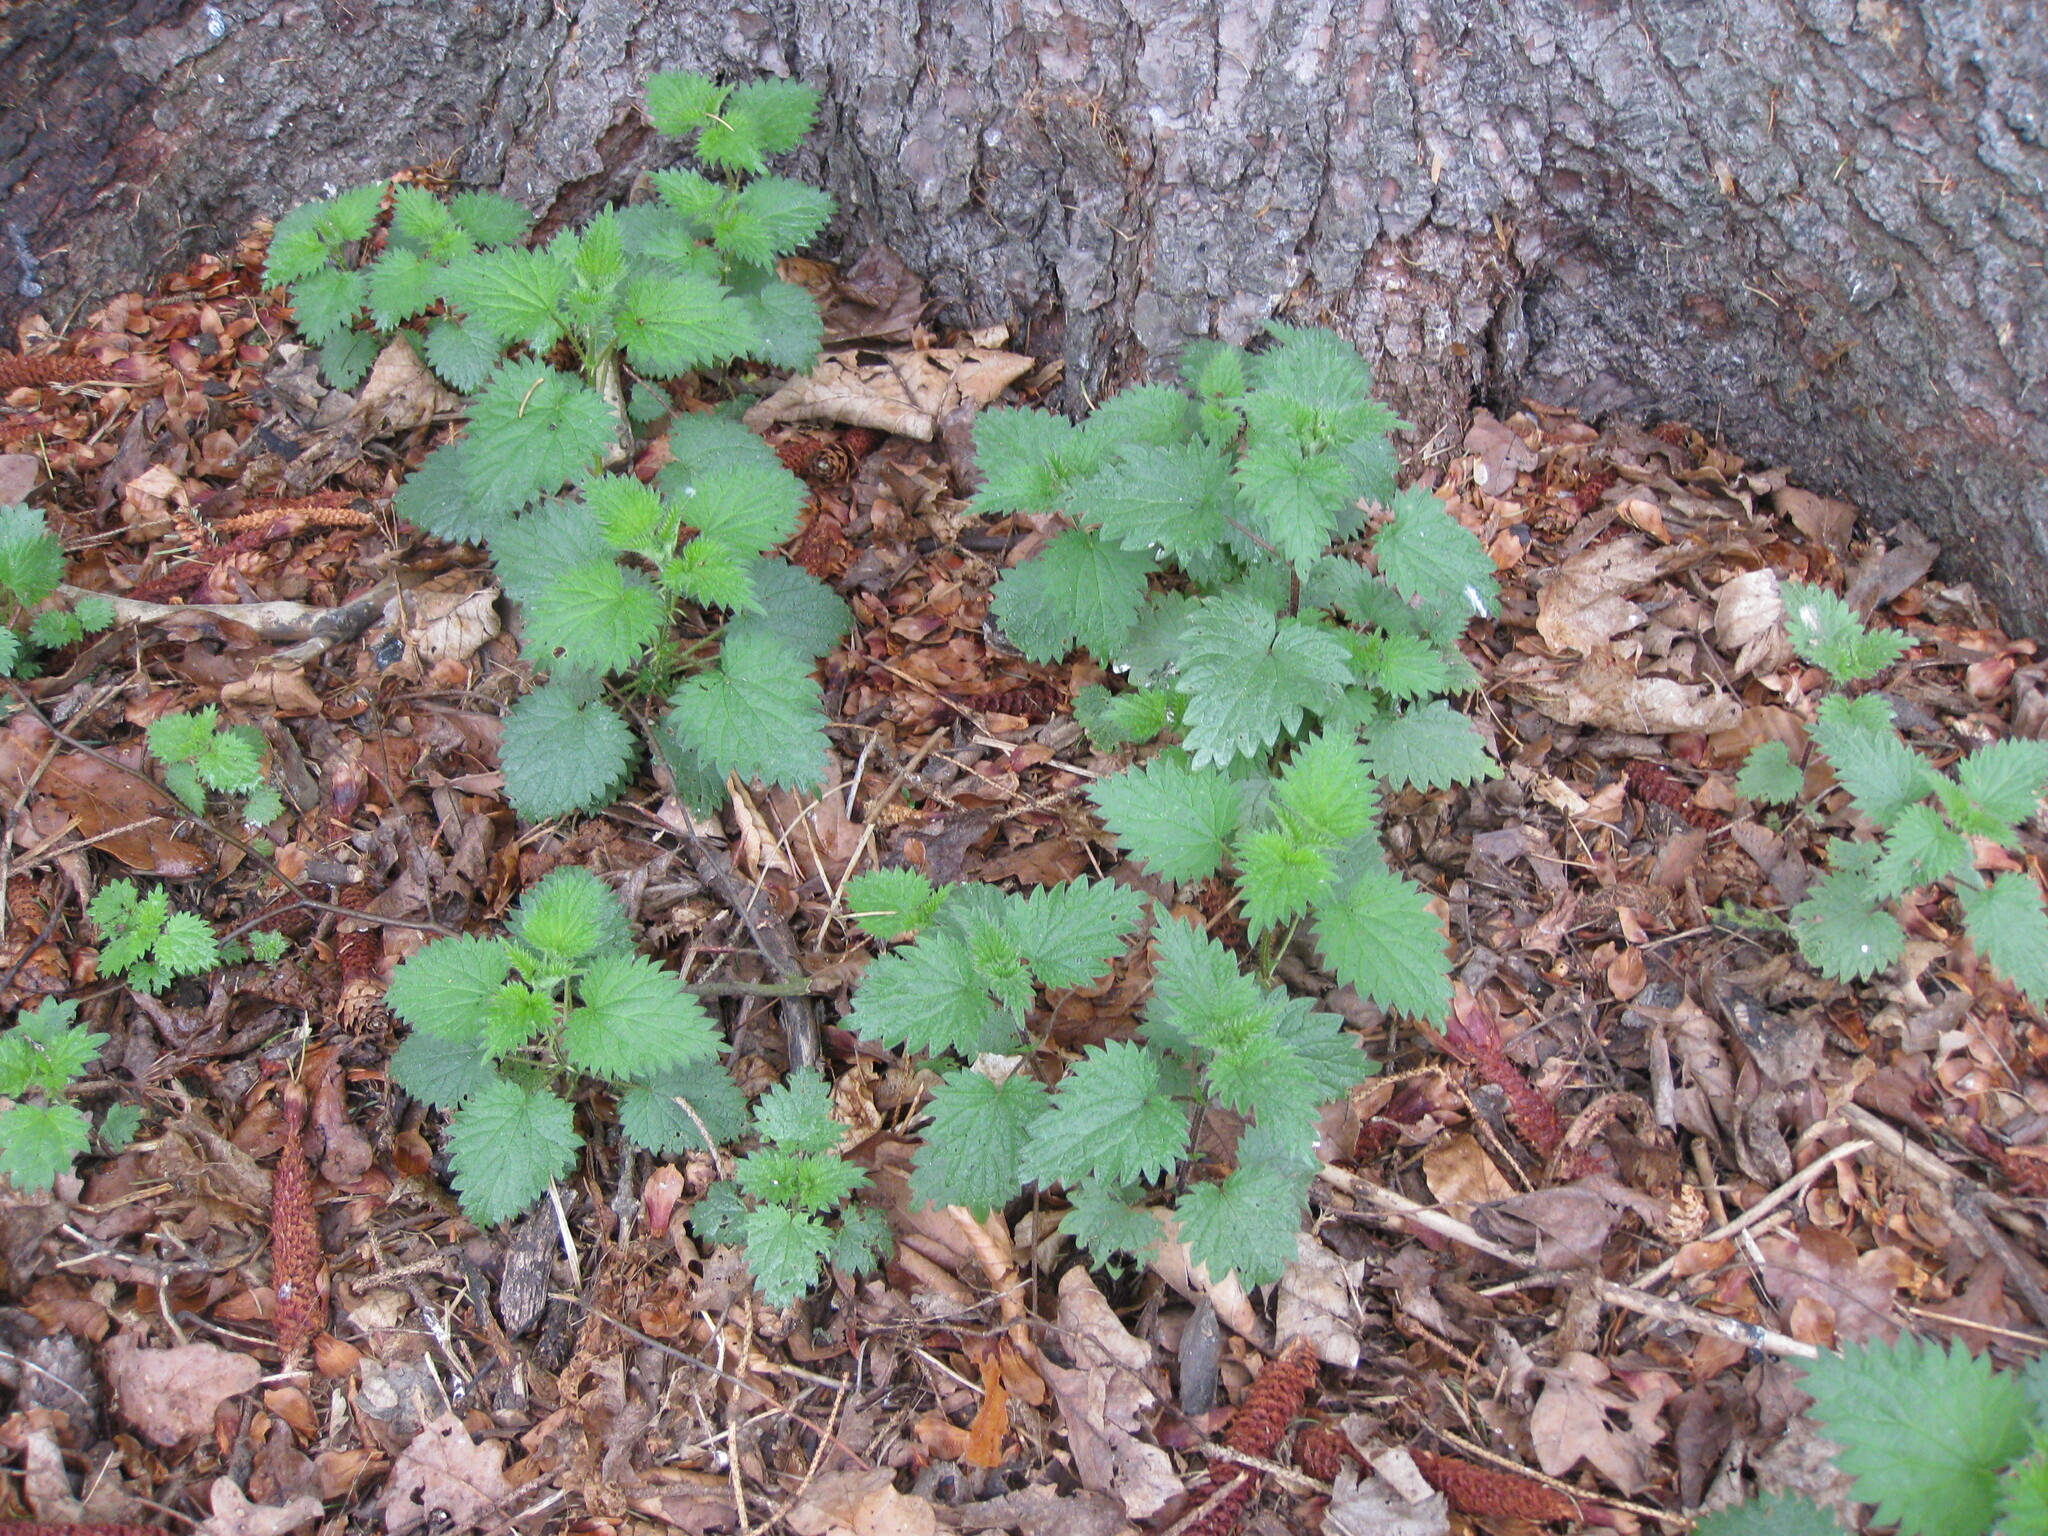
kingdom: Plantae
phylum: Tracheophyta
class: Magnoliopsida
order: Rosales
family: Urticaceae
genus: Urtica
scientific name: Urtica dioica
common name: Common nettle
